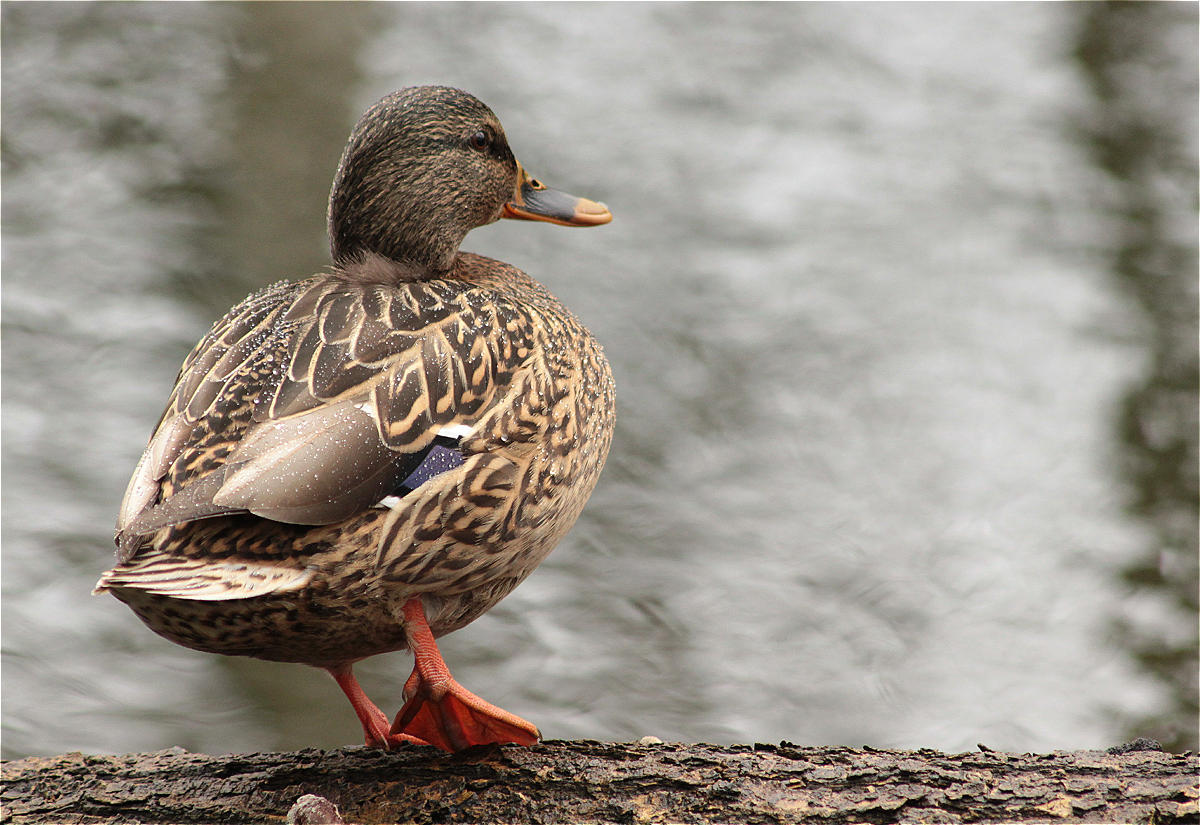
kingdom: Animalia
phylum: Chordata
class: Aves
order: Anseriformes
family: Anatidae
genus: Anas
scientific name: Anas platyrhynchos
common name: Mallard
